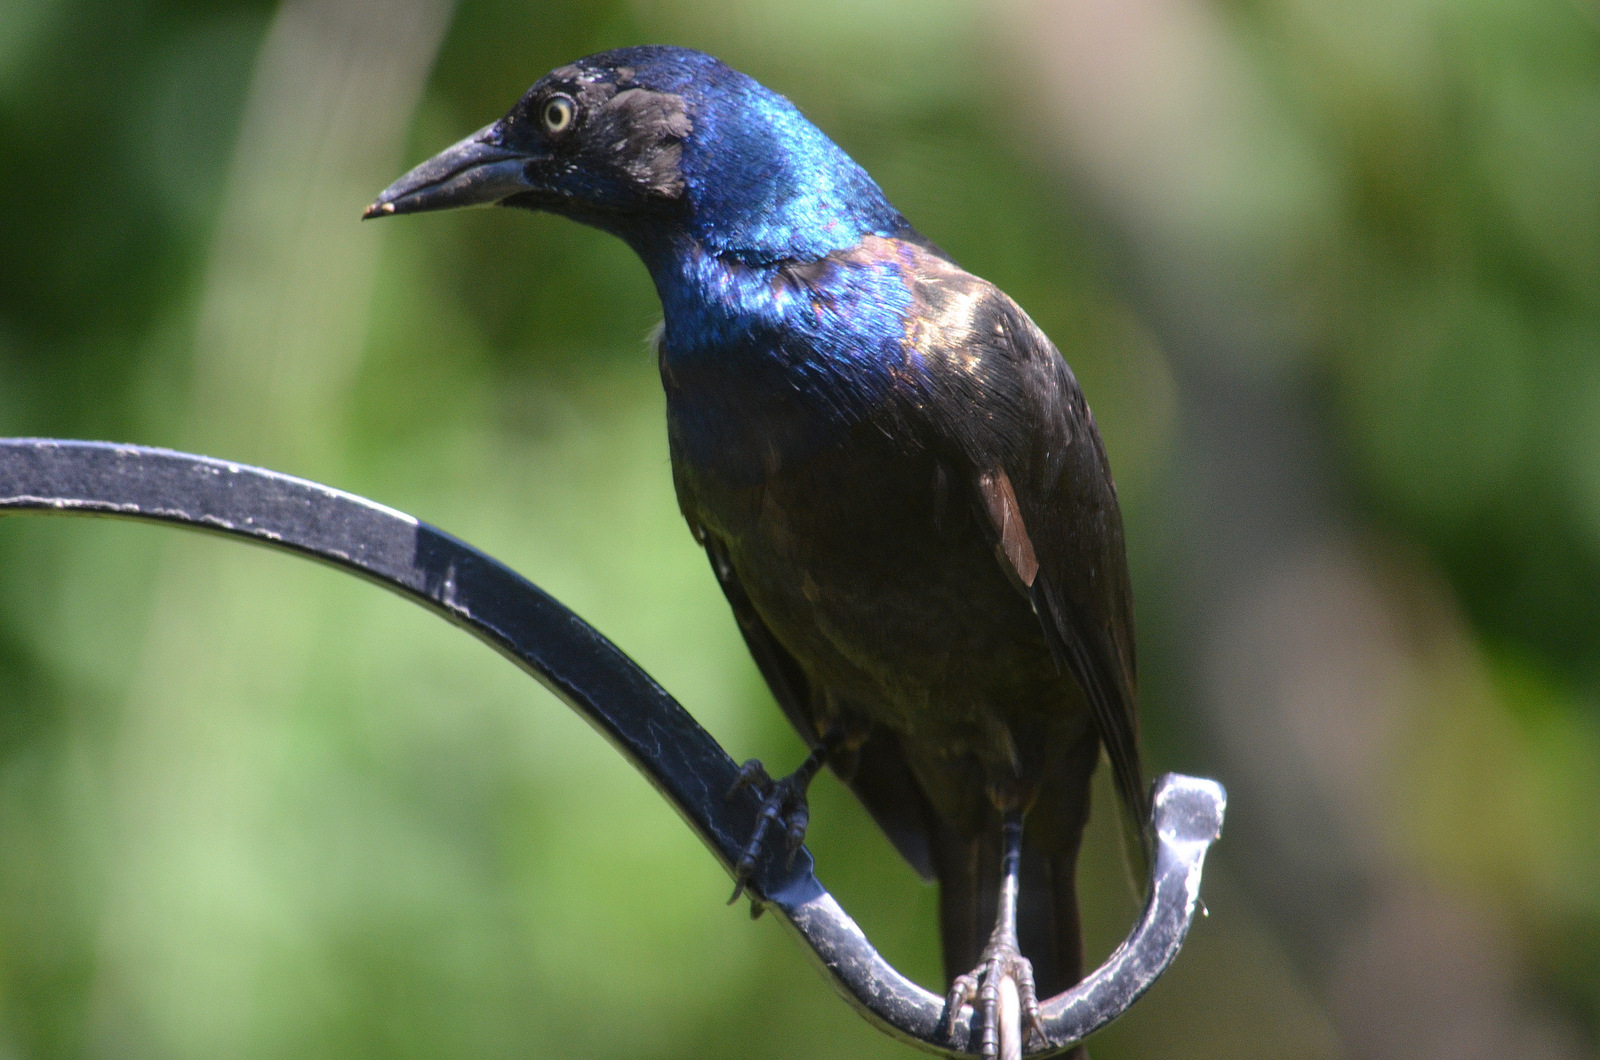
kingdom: Animalia
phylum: Chordata
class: Aves
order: Passeriformes
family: Icteridae
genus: Quiscalus
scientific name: Quiscalus quiscula
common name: Common grackle
